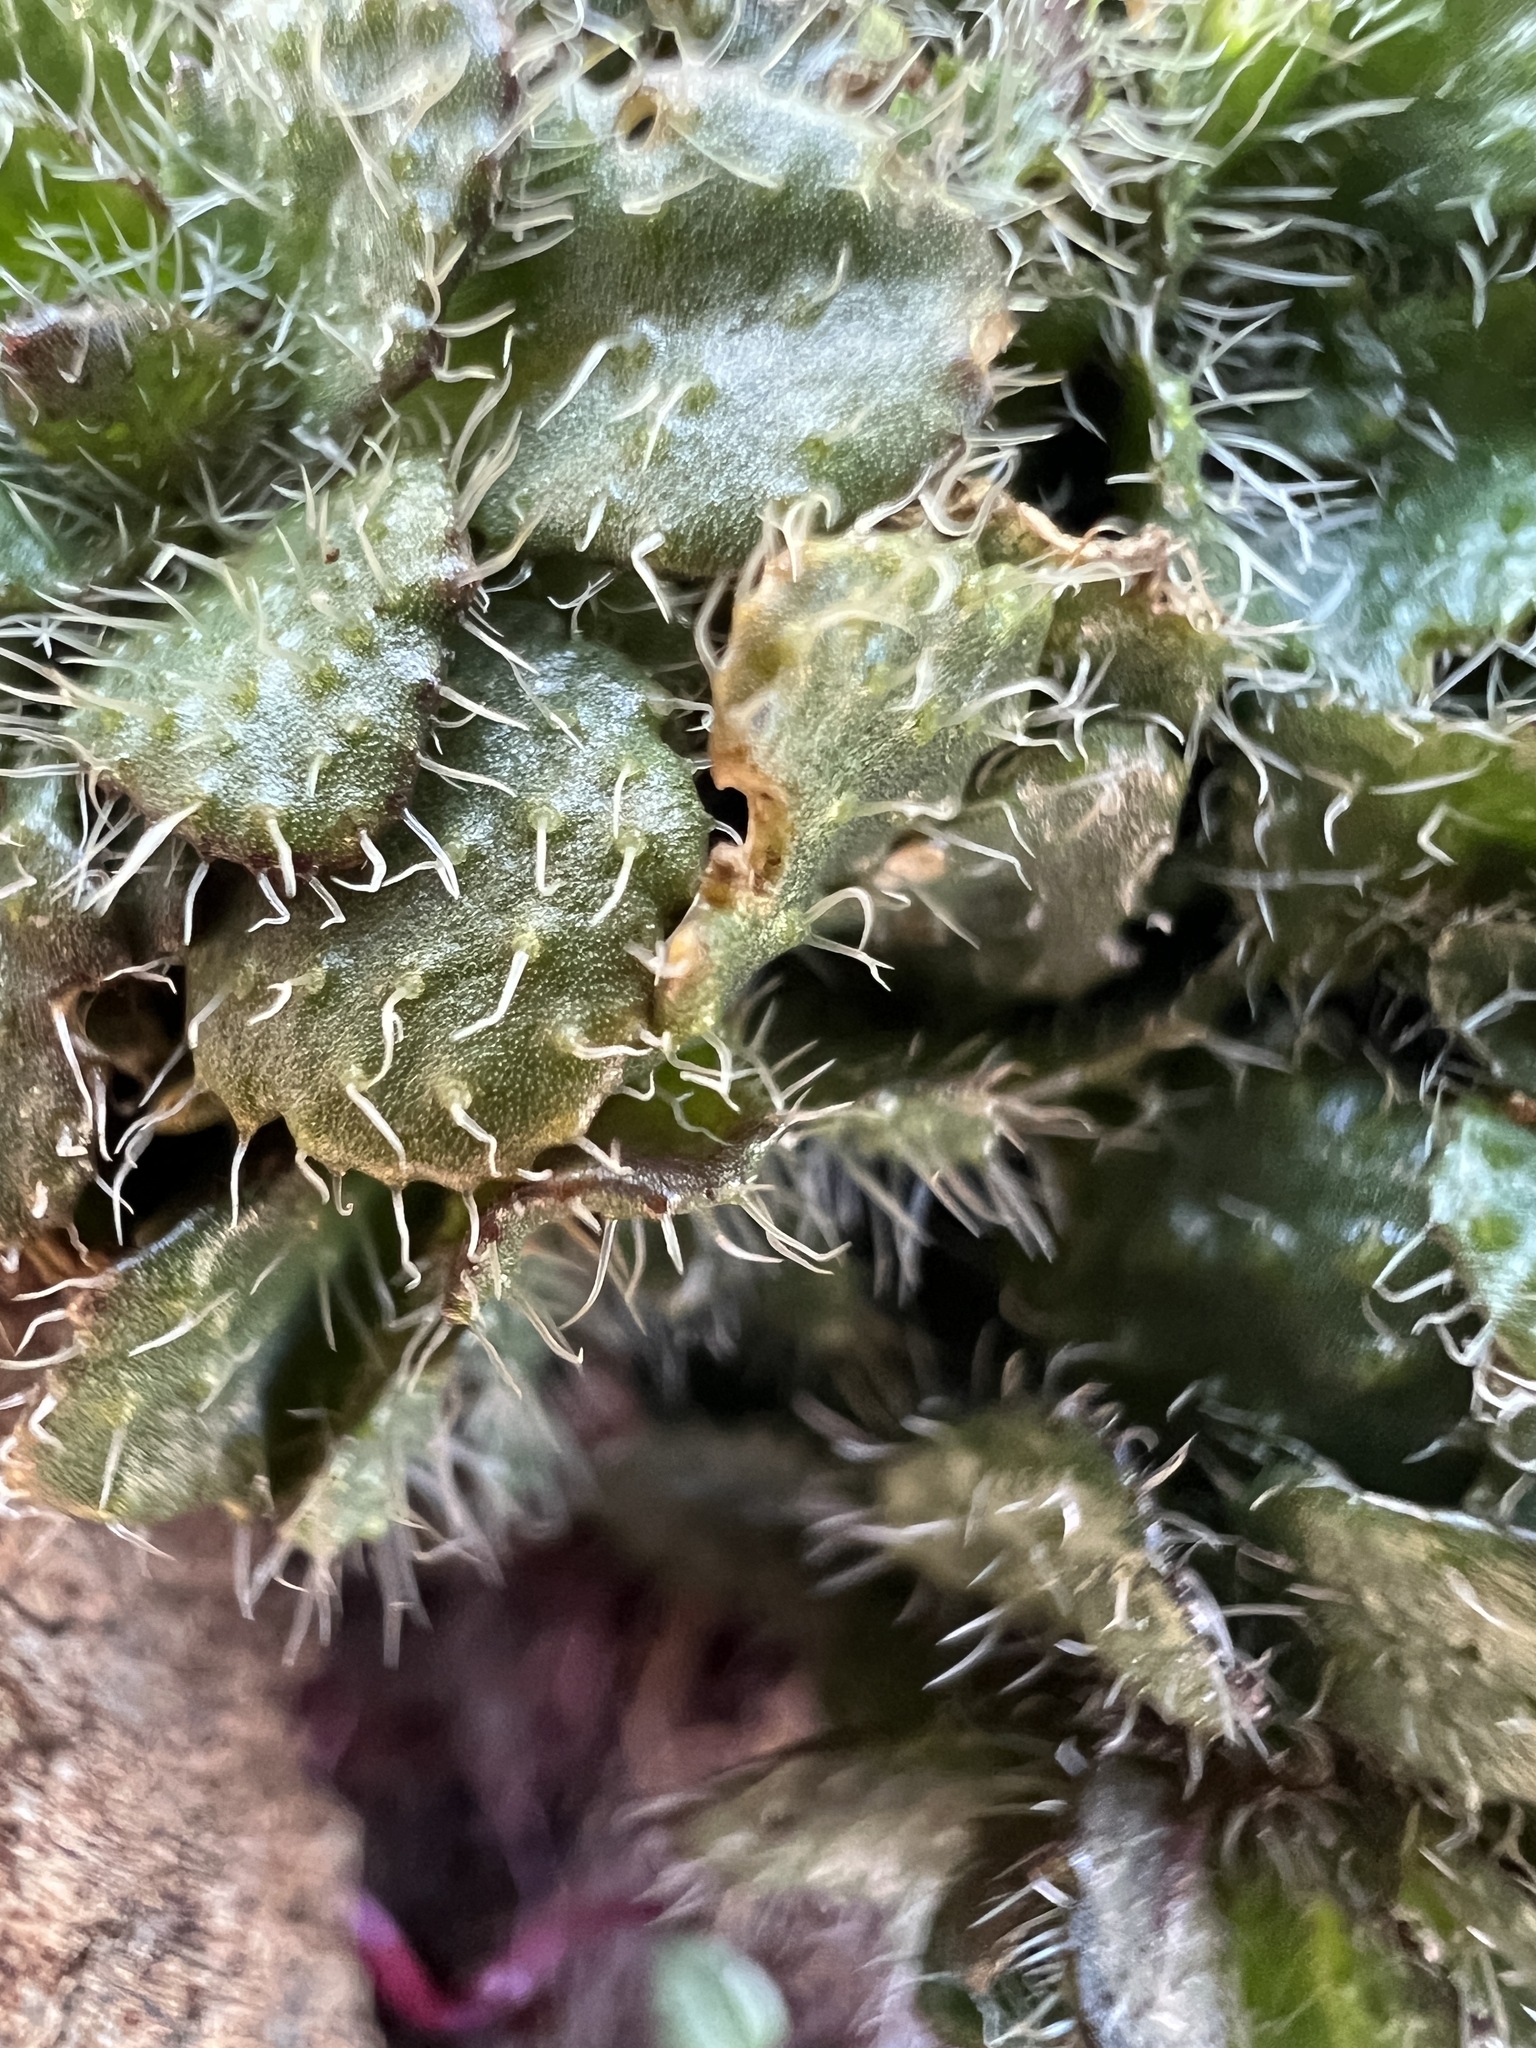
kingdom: Plantae
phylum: Tracheophyta
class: Magnoliopsida
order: Brassicales
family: Brassicaceae
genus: Arabis
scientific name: Arabis aculeolata
